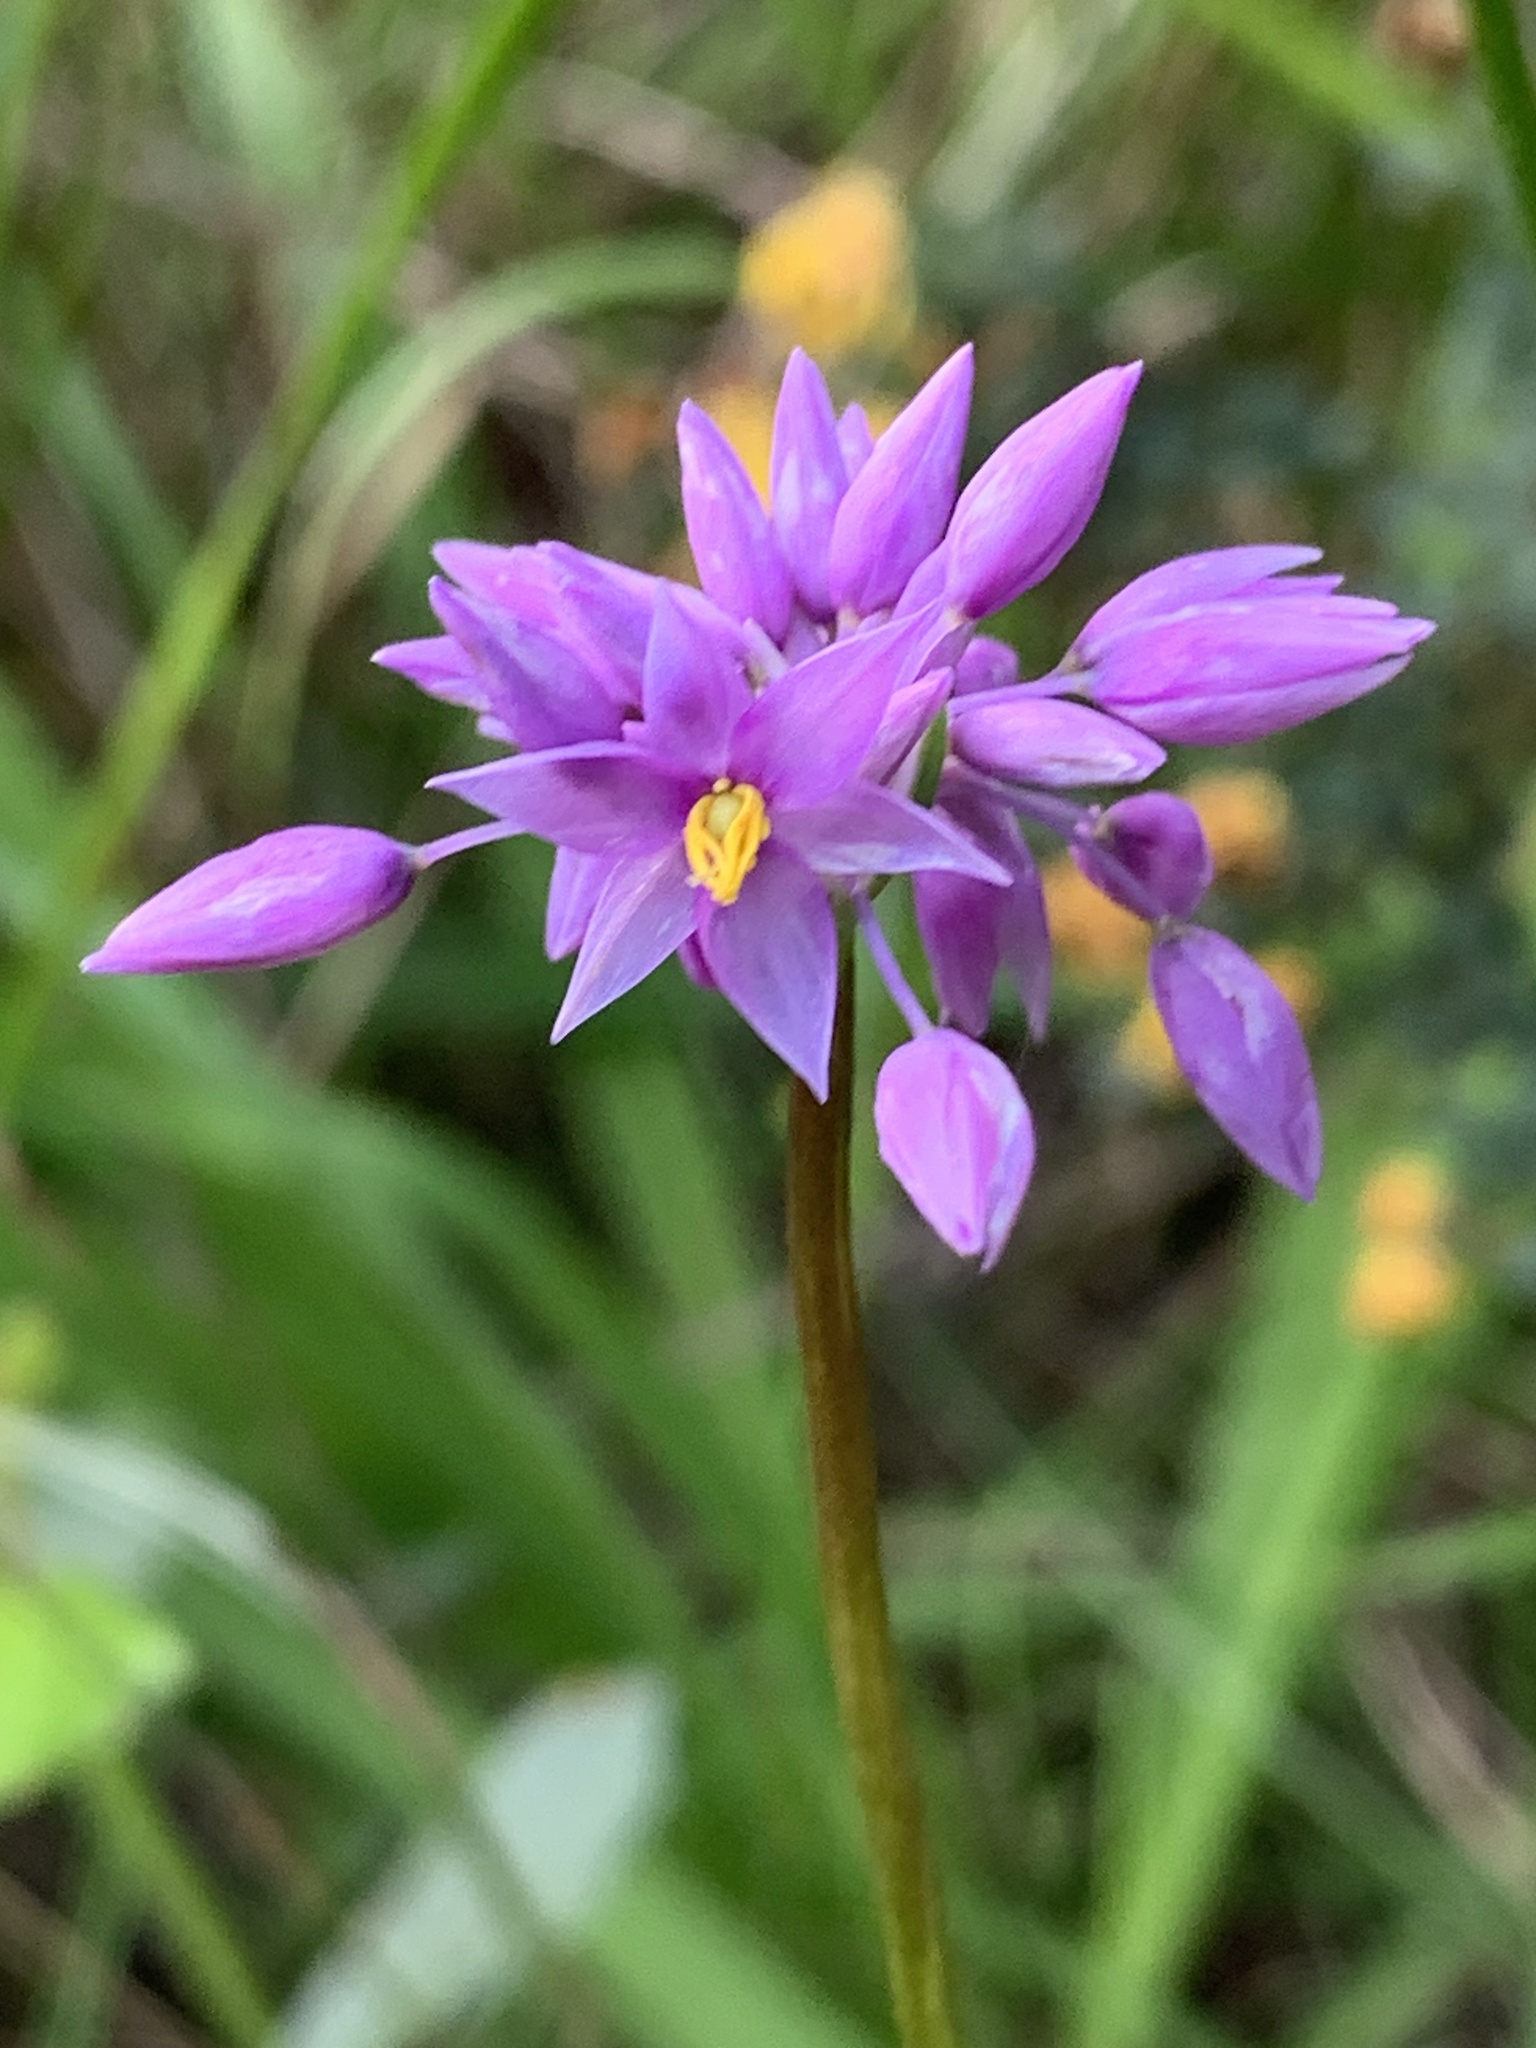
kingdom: Plantae
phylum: Tracheophyta
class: Liliopsida
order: Asparagales
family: Asparagaceae
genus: Sowerbaea
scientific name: Sowerbaea laxiflora
